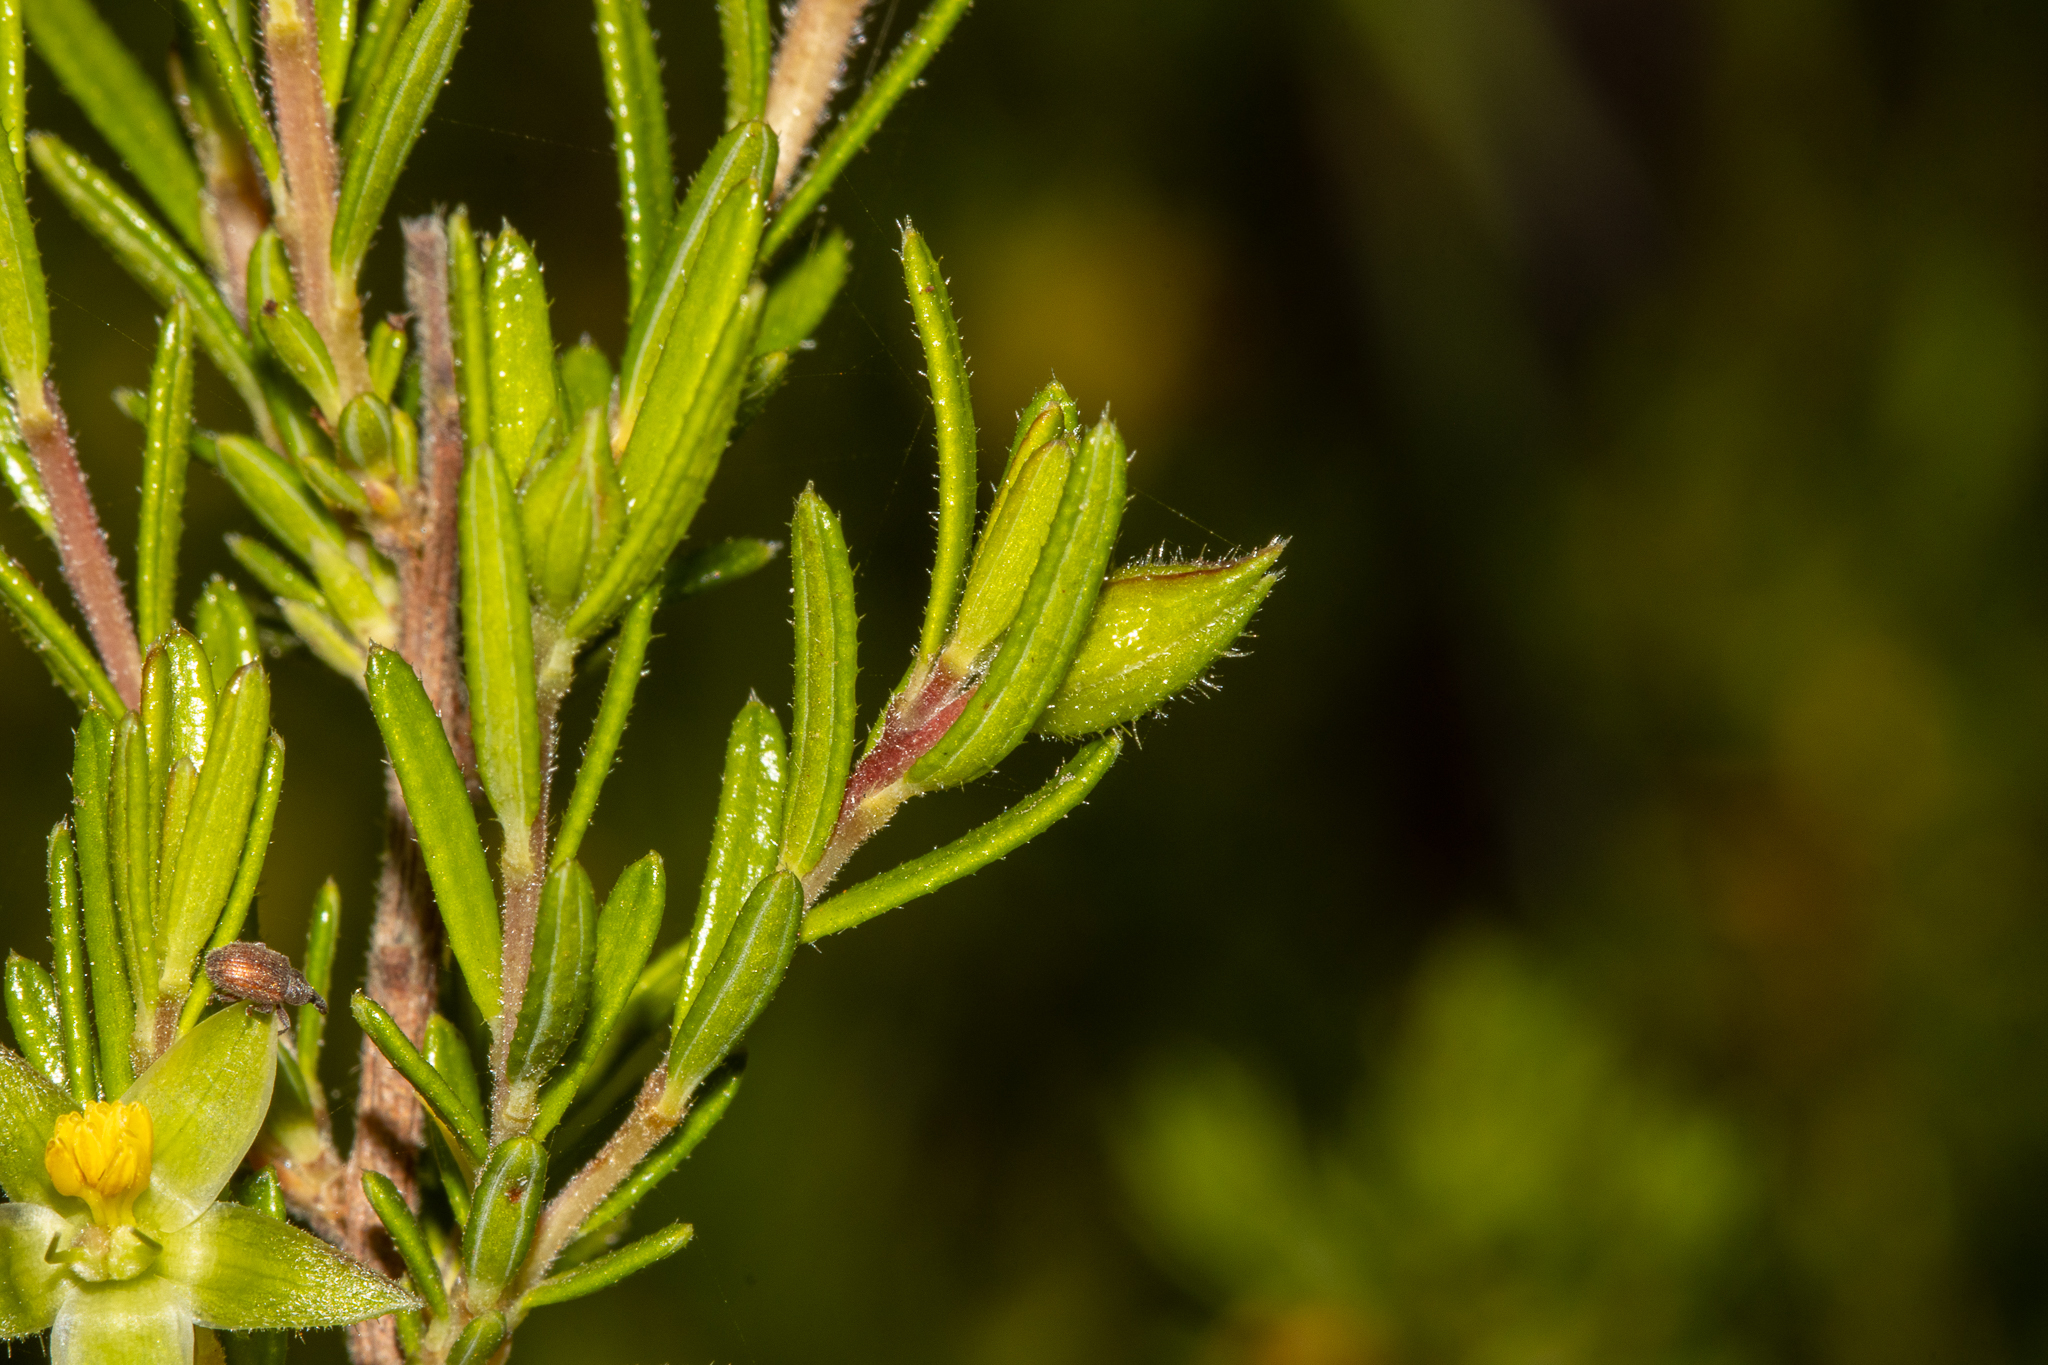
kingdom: Plantae
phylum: Tracheophyta
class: Magnoliopsida
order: Dilleniales
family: Dilleniaceae
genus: Hibbertia
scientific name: Hibbertia riparia
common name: Erect guinea-flower
